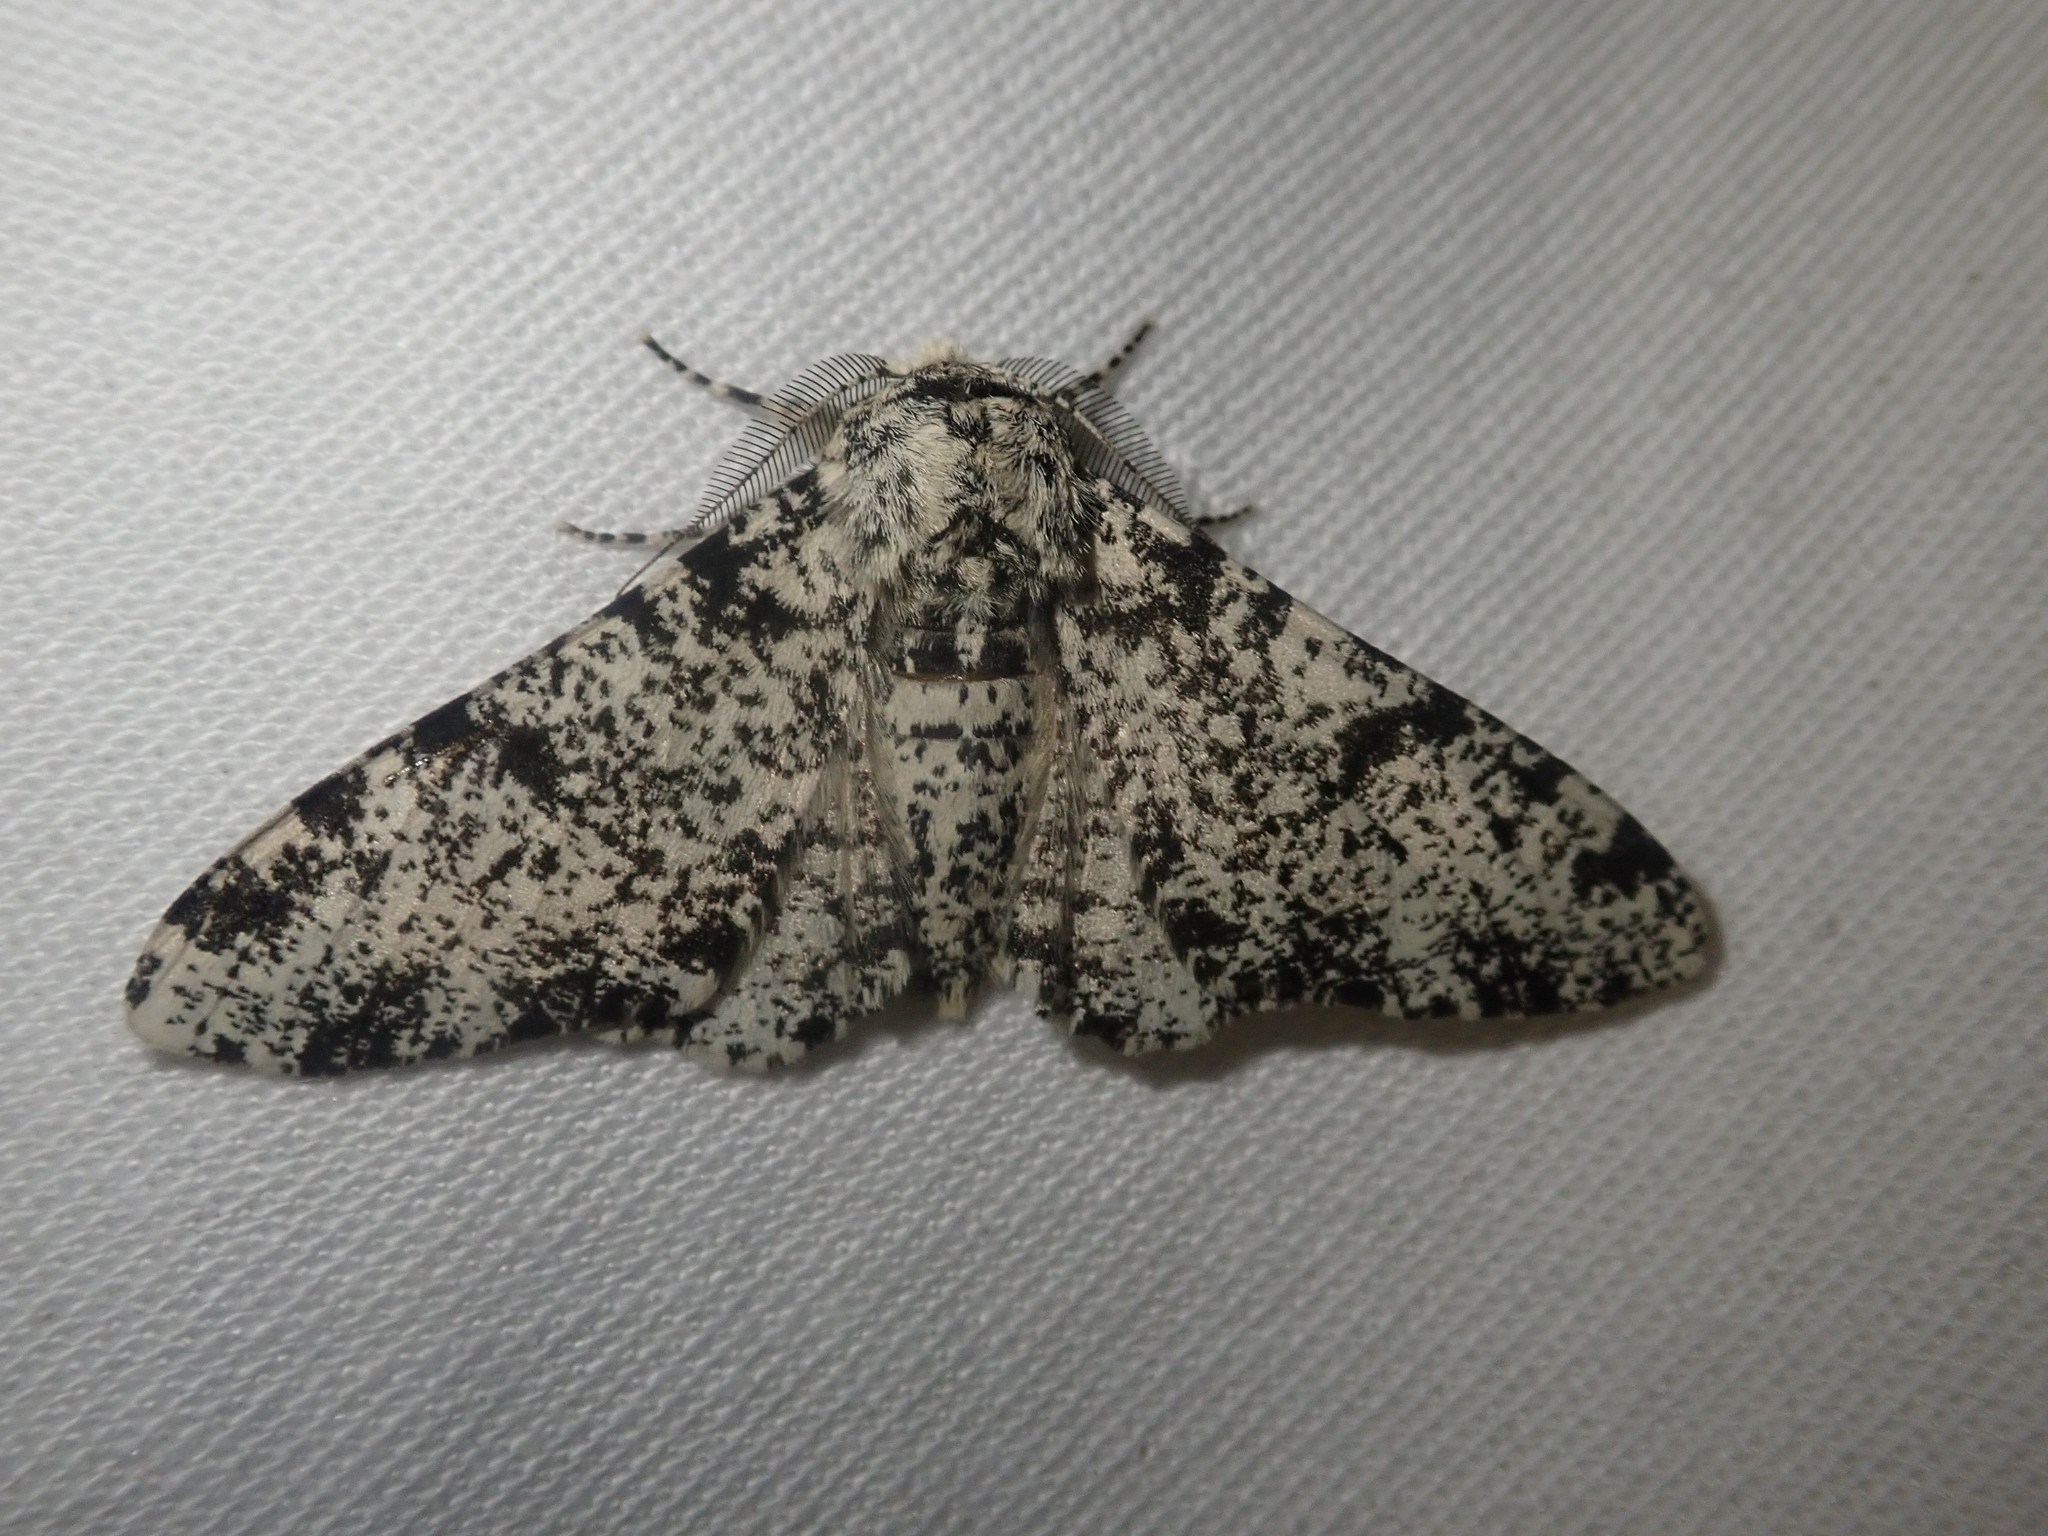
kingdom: Animalia
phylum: Arthropoda
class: Insecta
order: Lepidoptera
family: Geometridae
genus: Biston
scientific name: Biston betularia
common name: Peppered moth
